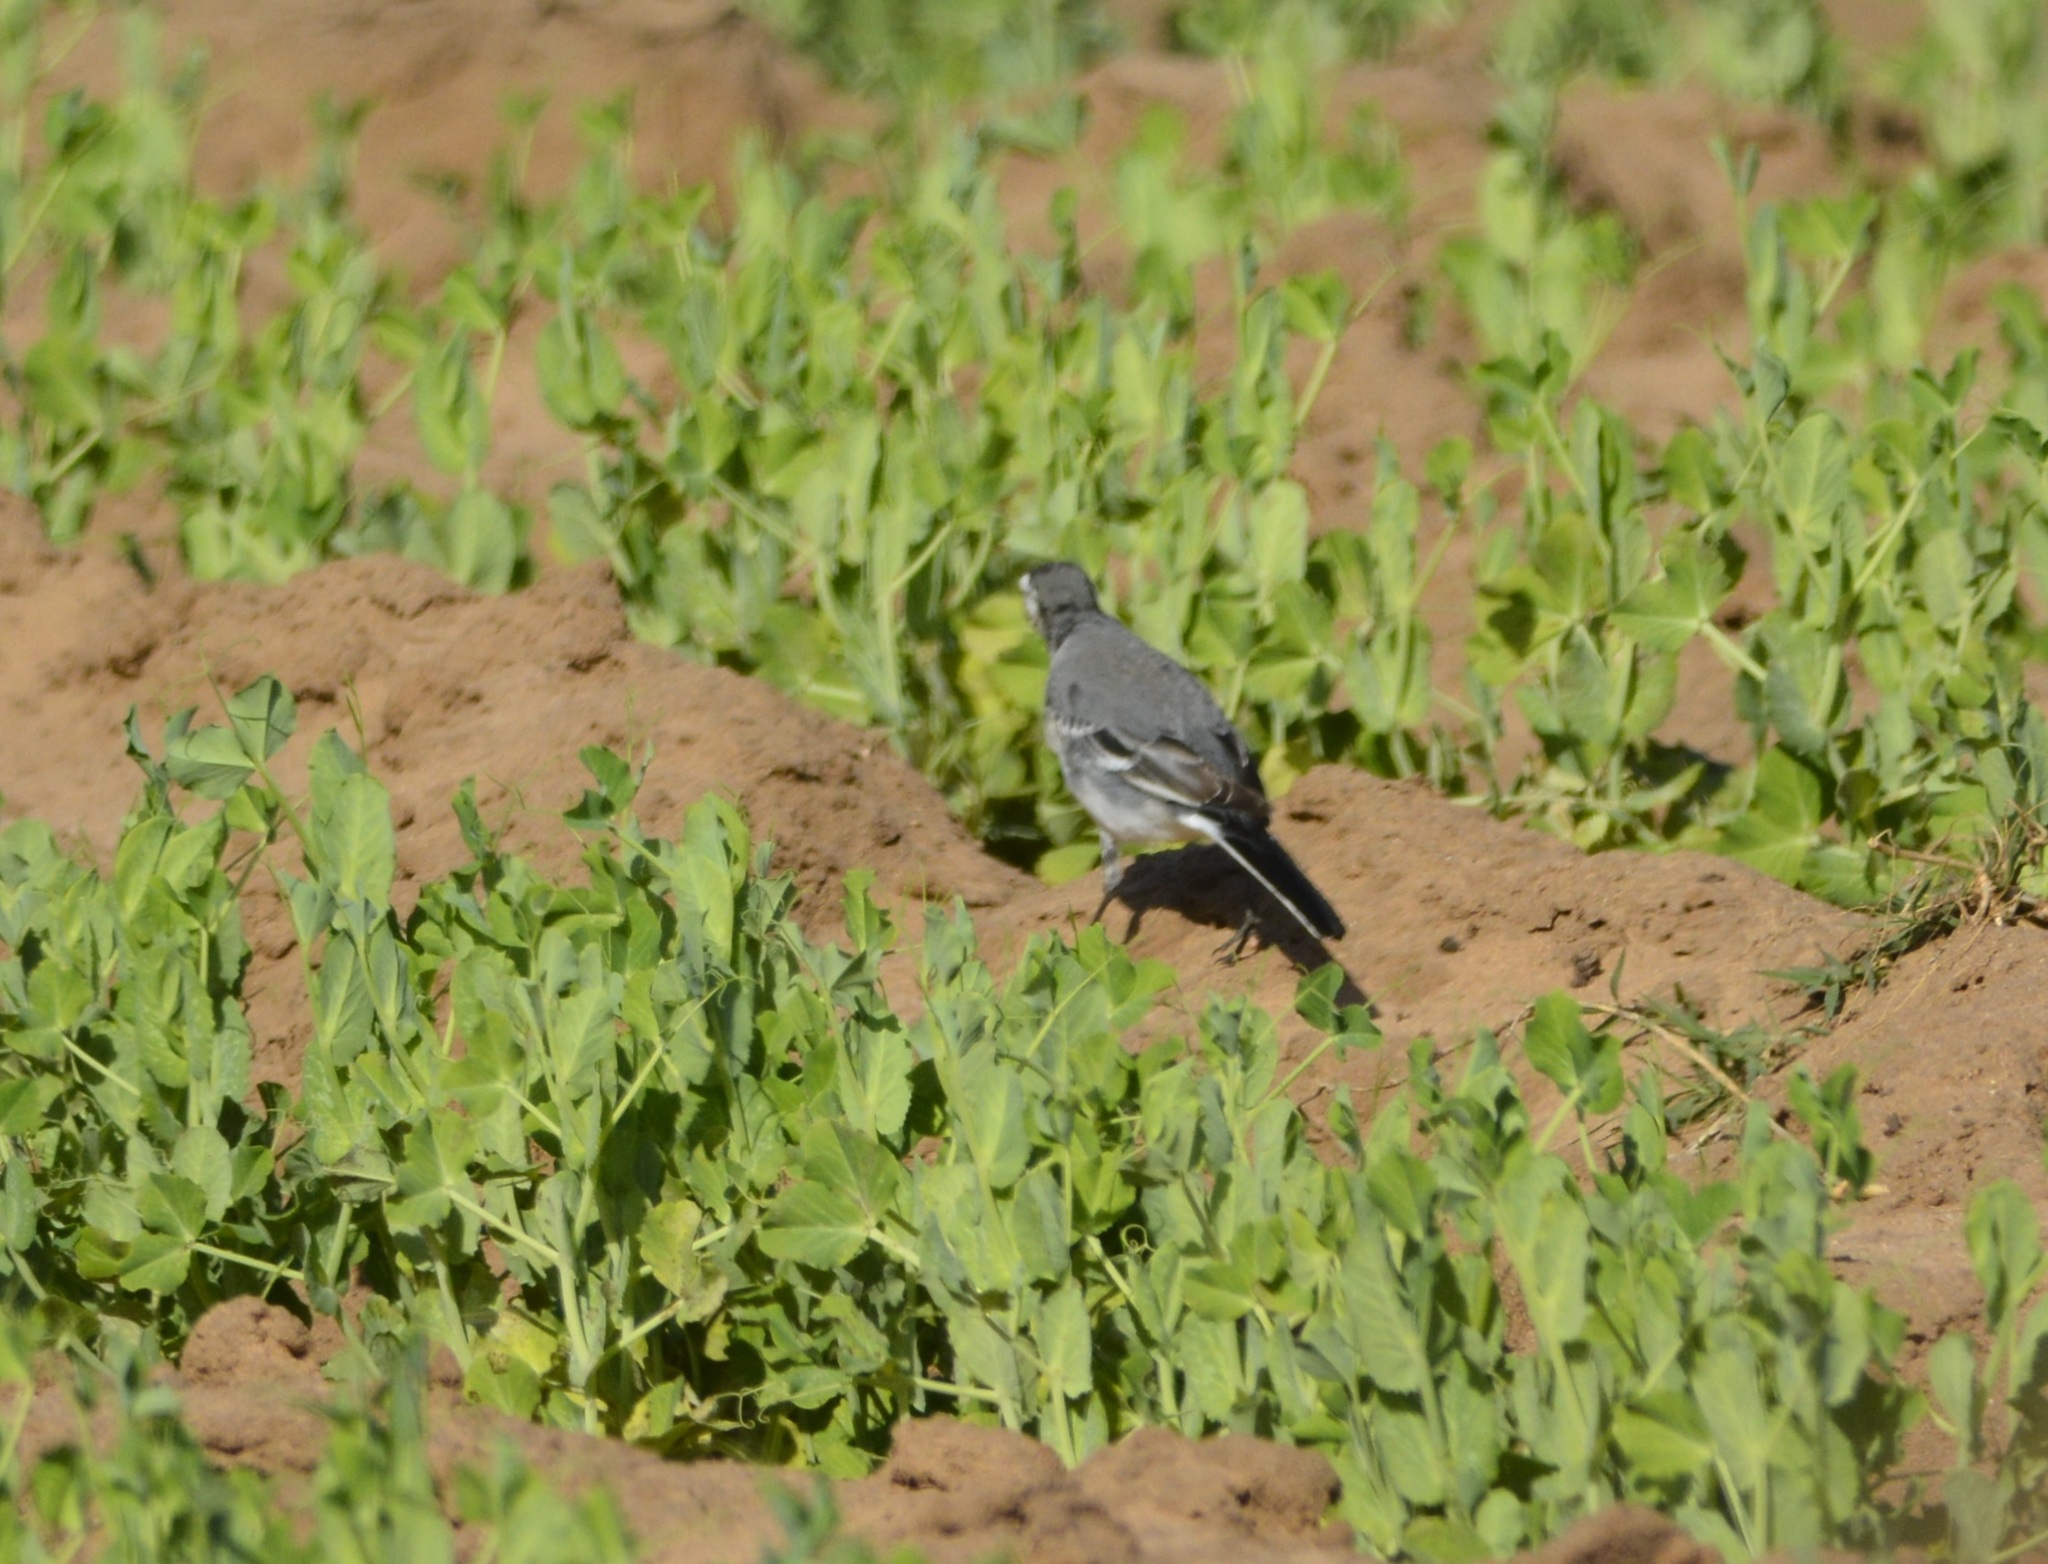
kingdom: Animalia
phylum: Chordata
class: Aves
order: Passeriformes
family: Motacillidae
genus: Motacilla
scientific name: Motacilla alba
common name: White wagtail
